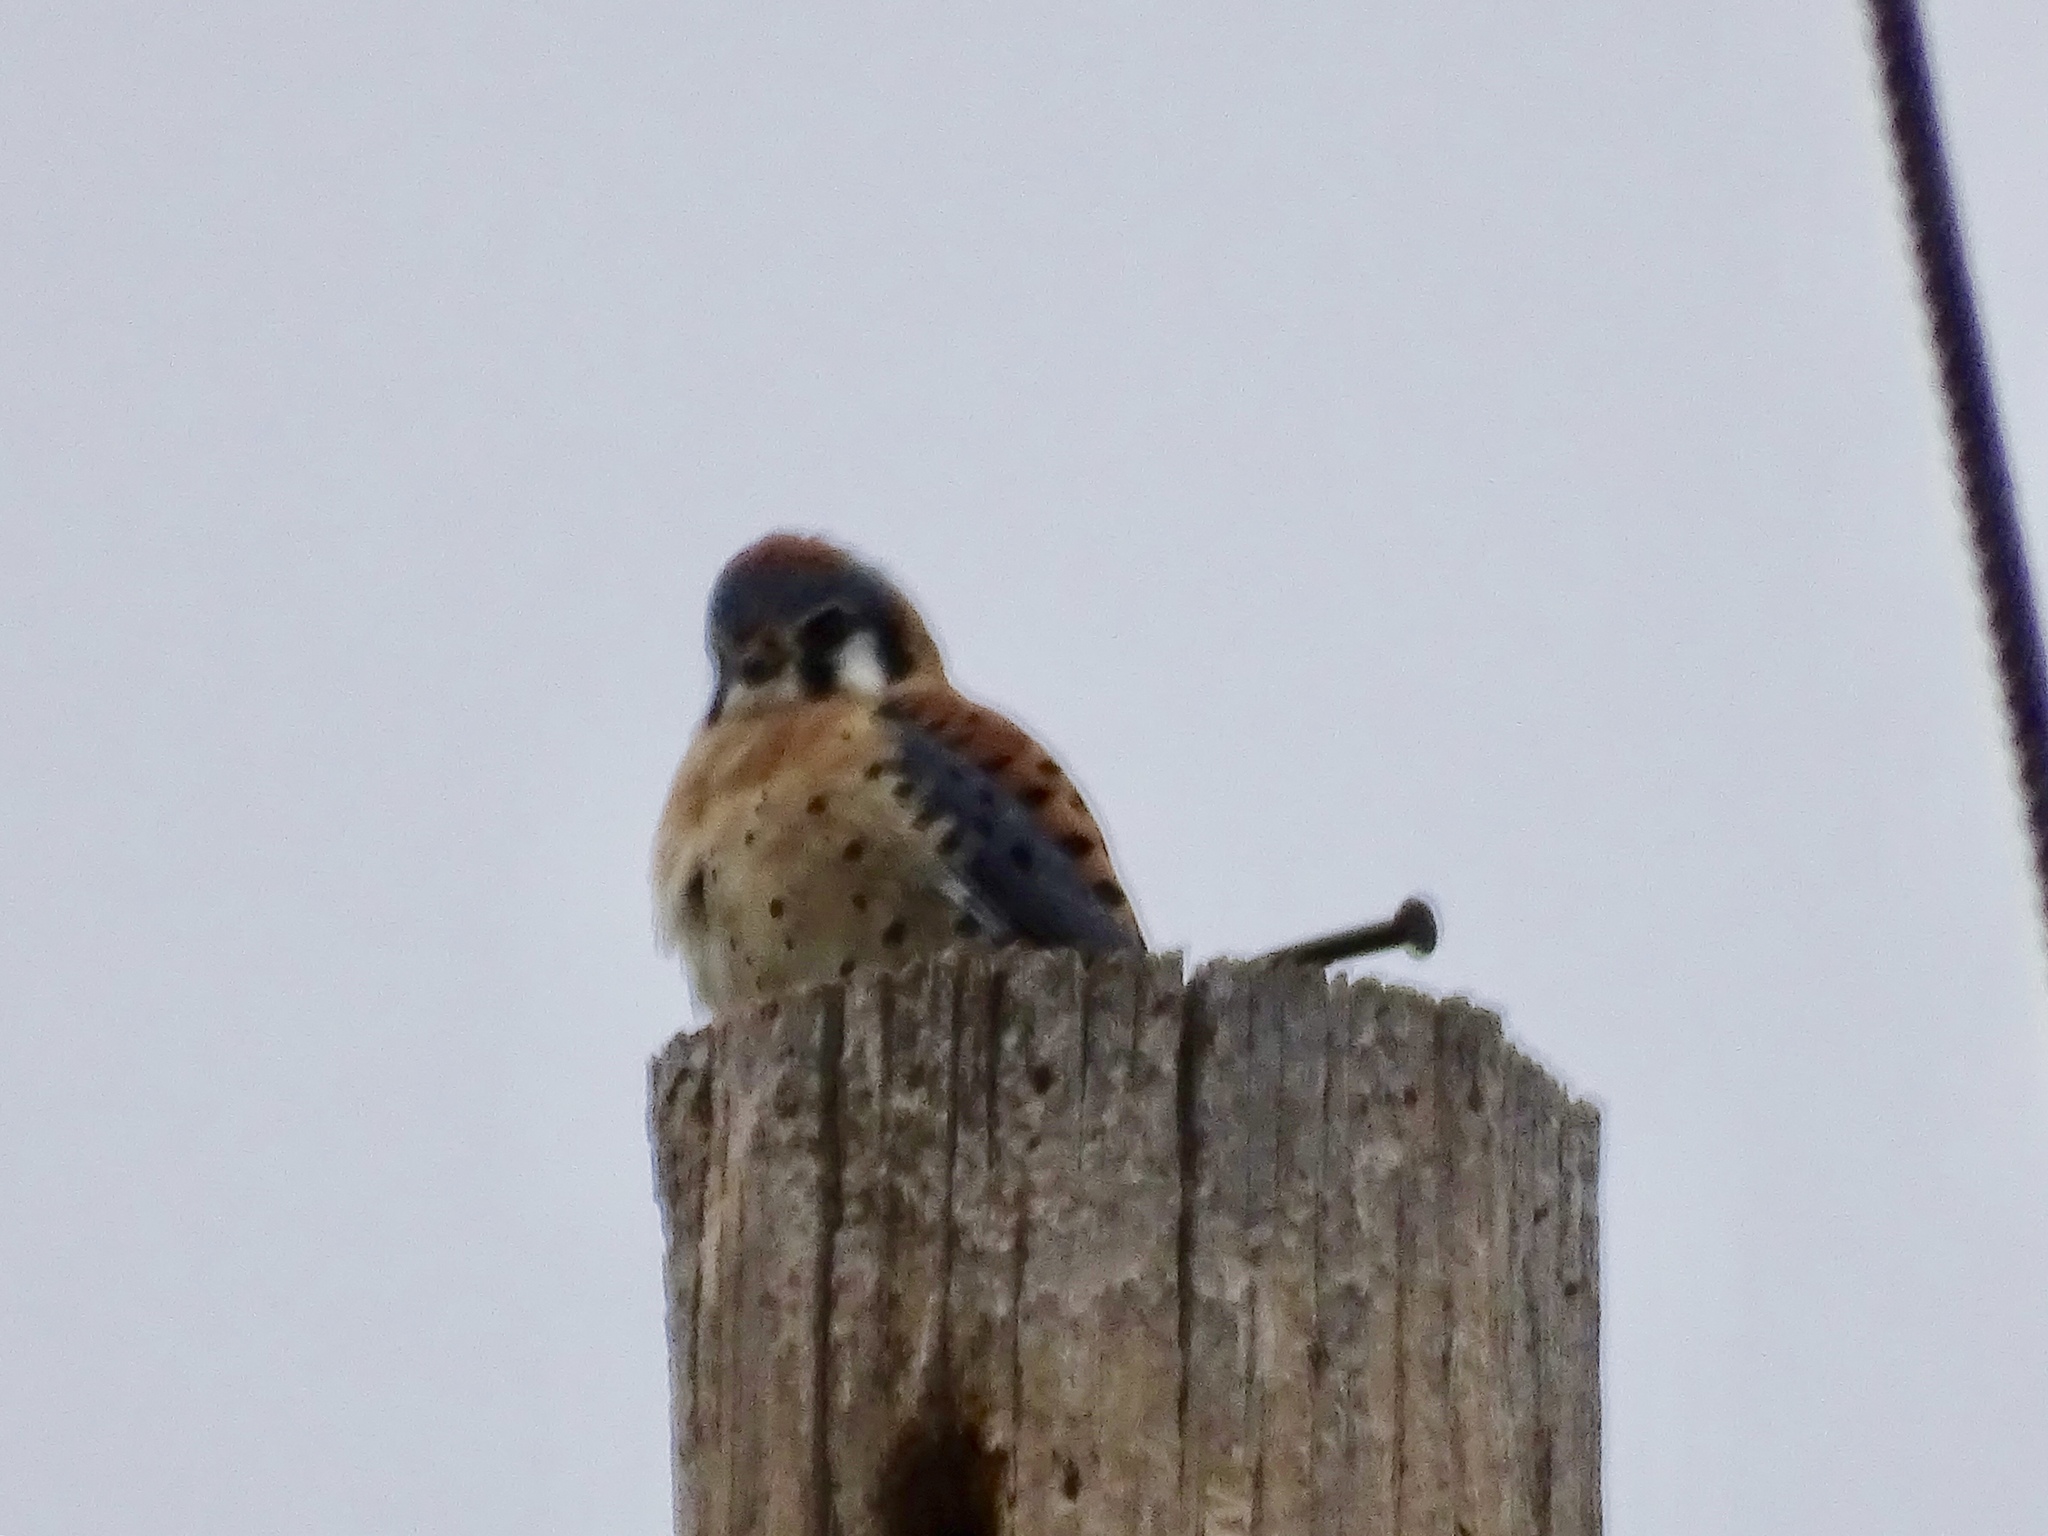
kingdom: Animalia
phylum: Chordata
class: Aves
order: Falconiformes
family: Falconidae
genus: Falco
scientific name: Falco sparverius
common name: American kestrel
